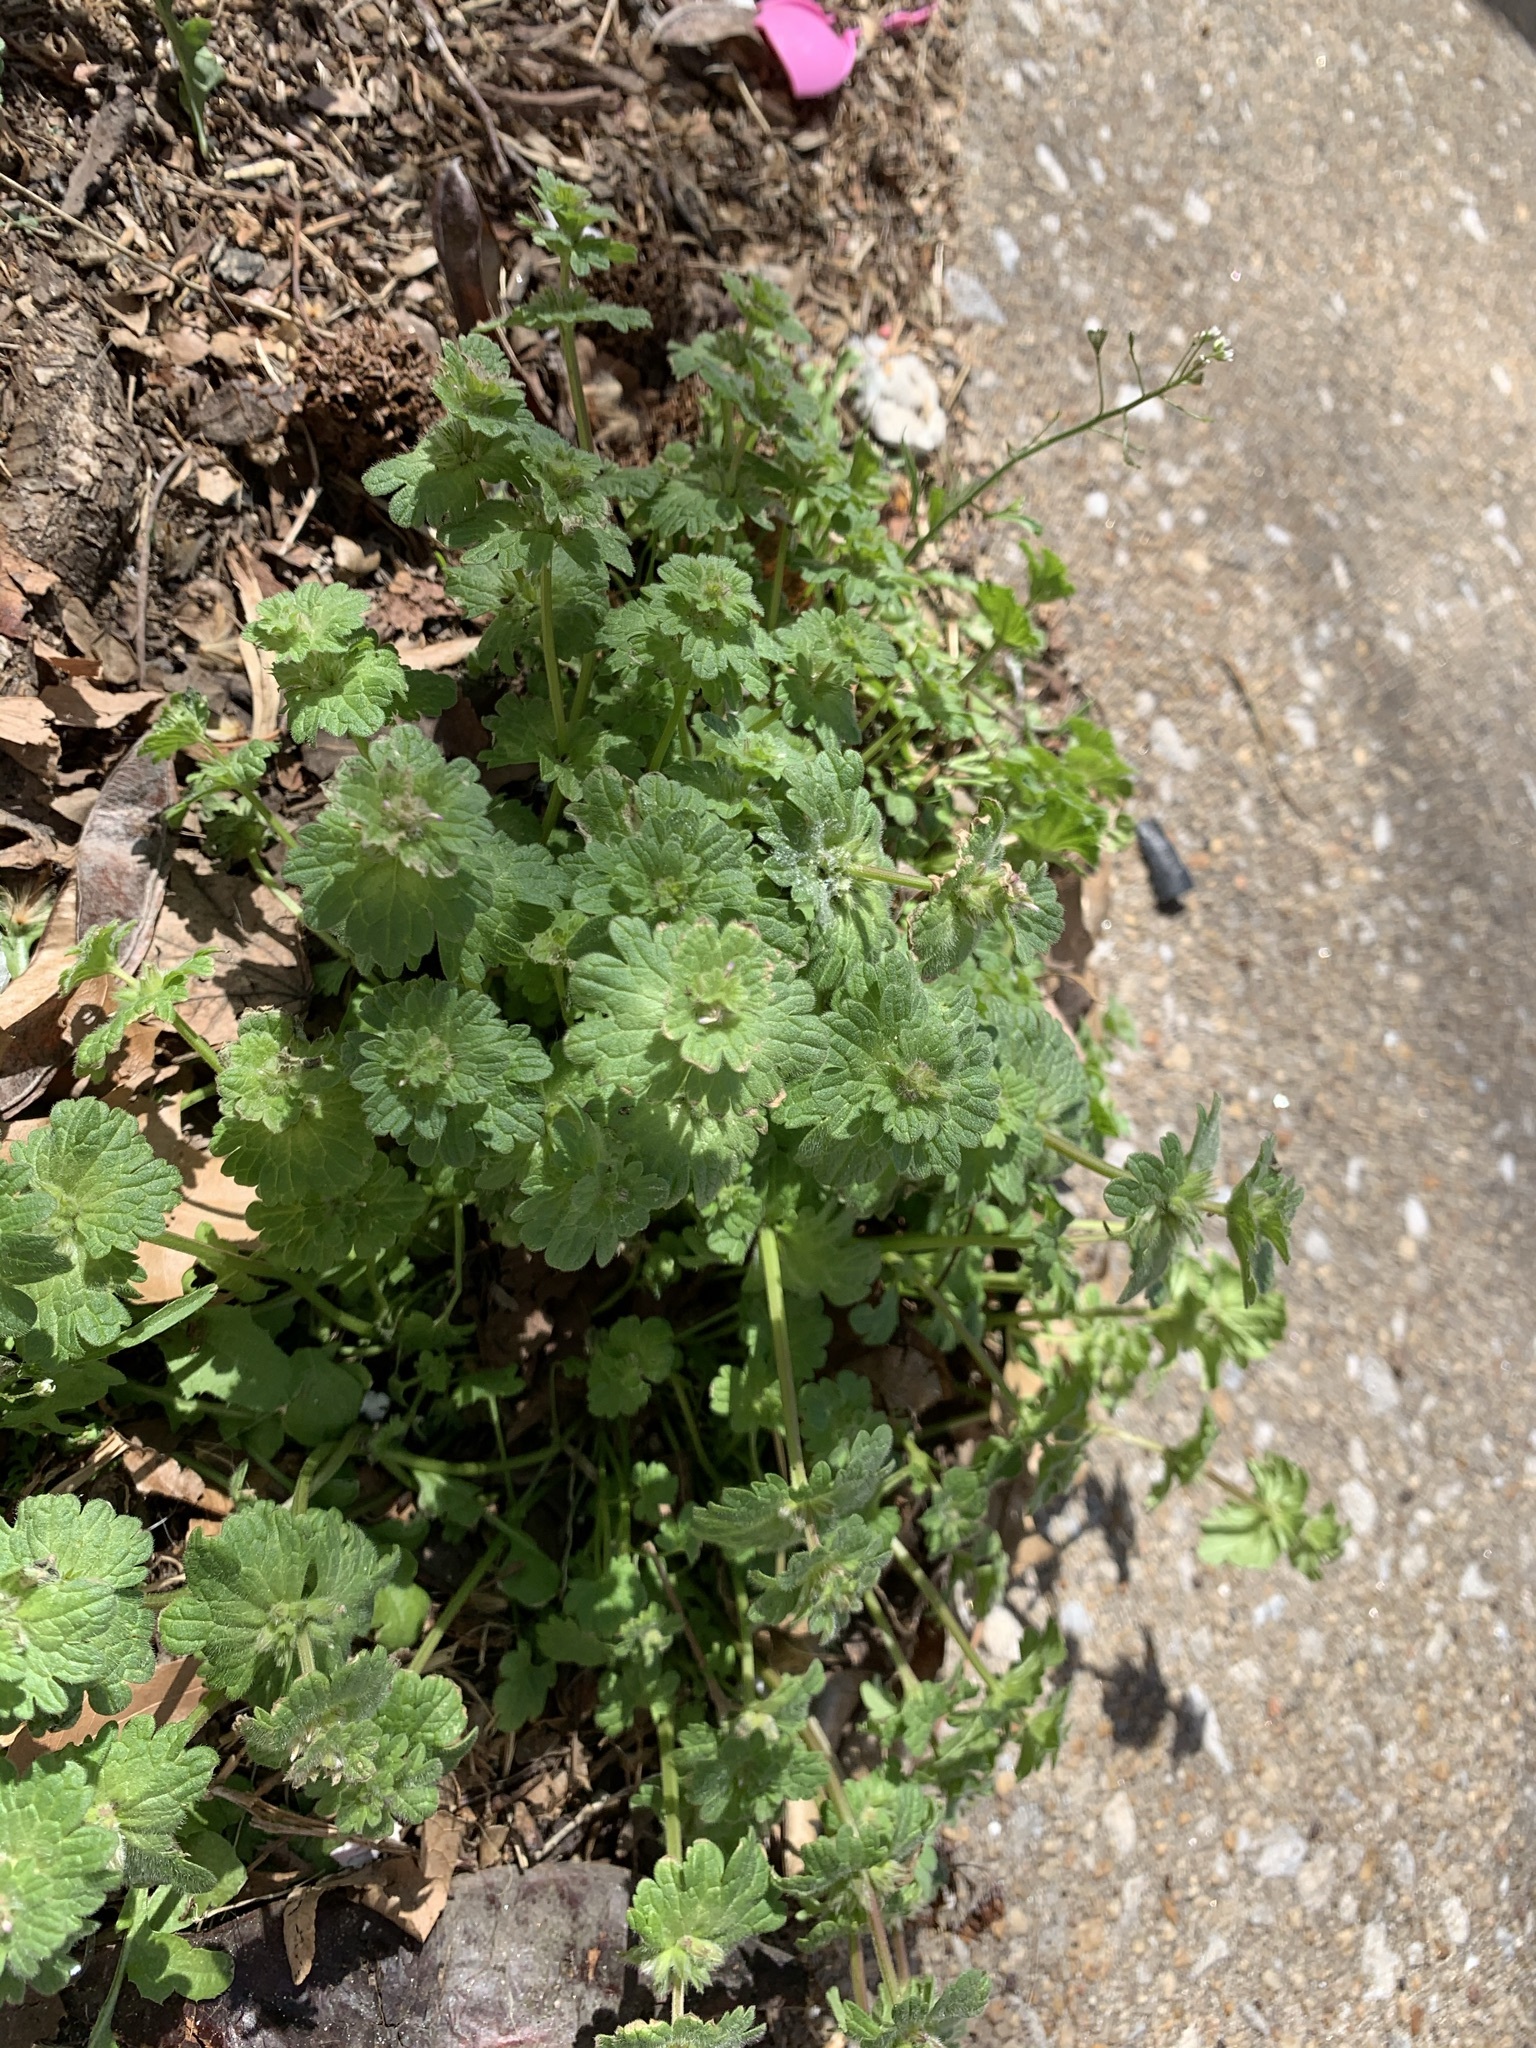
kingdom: Plantae
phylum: Tracheophyta
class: Magnoliopsida
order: Lamiales
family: Lamiaceae
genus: Lamium
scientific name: Lamium amplexicaule
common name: Henbit dead-nettle
